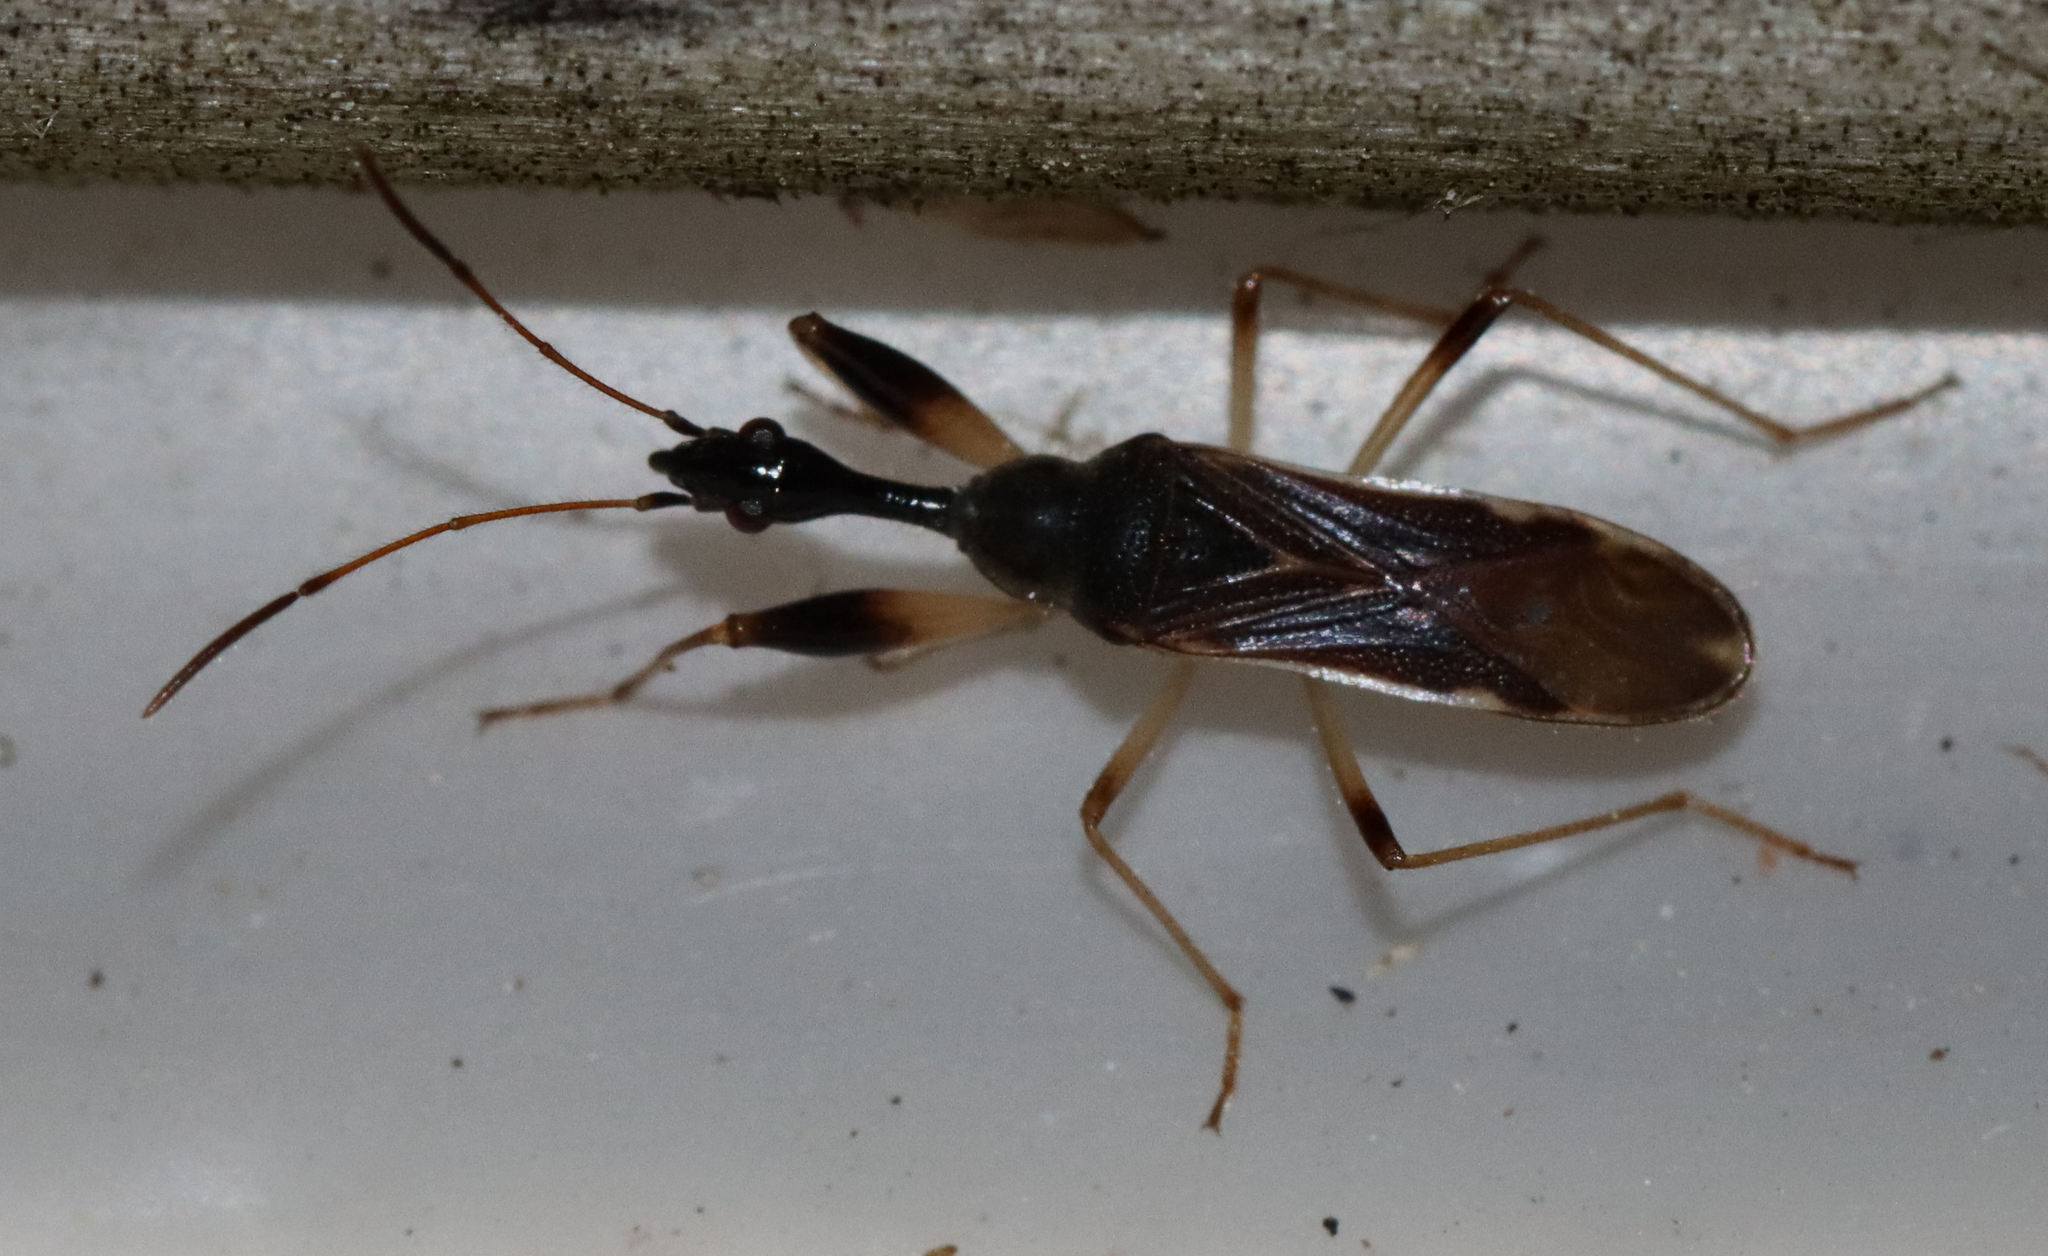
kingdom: Animalia
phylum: Arthropoda
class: Insecta
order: Hemiptera
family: Rhyparochromidae
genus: Myodocha
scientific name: Myodocha serripes
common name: Long-necked seed bug
